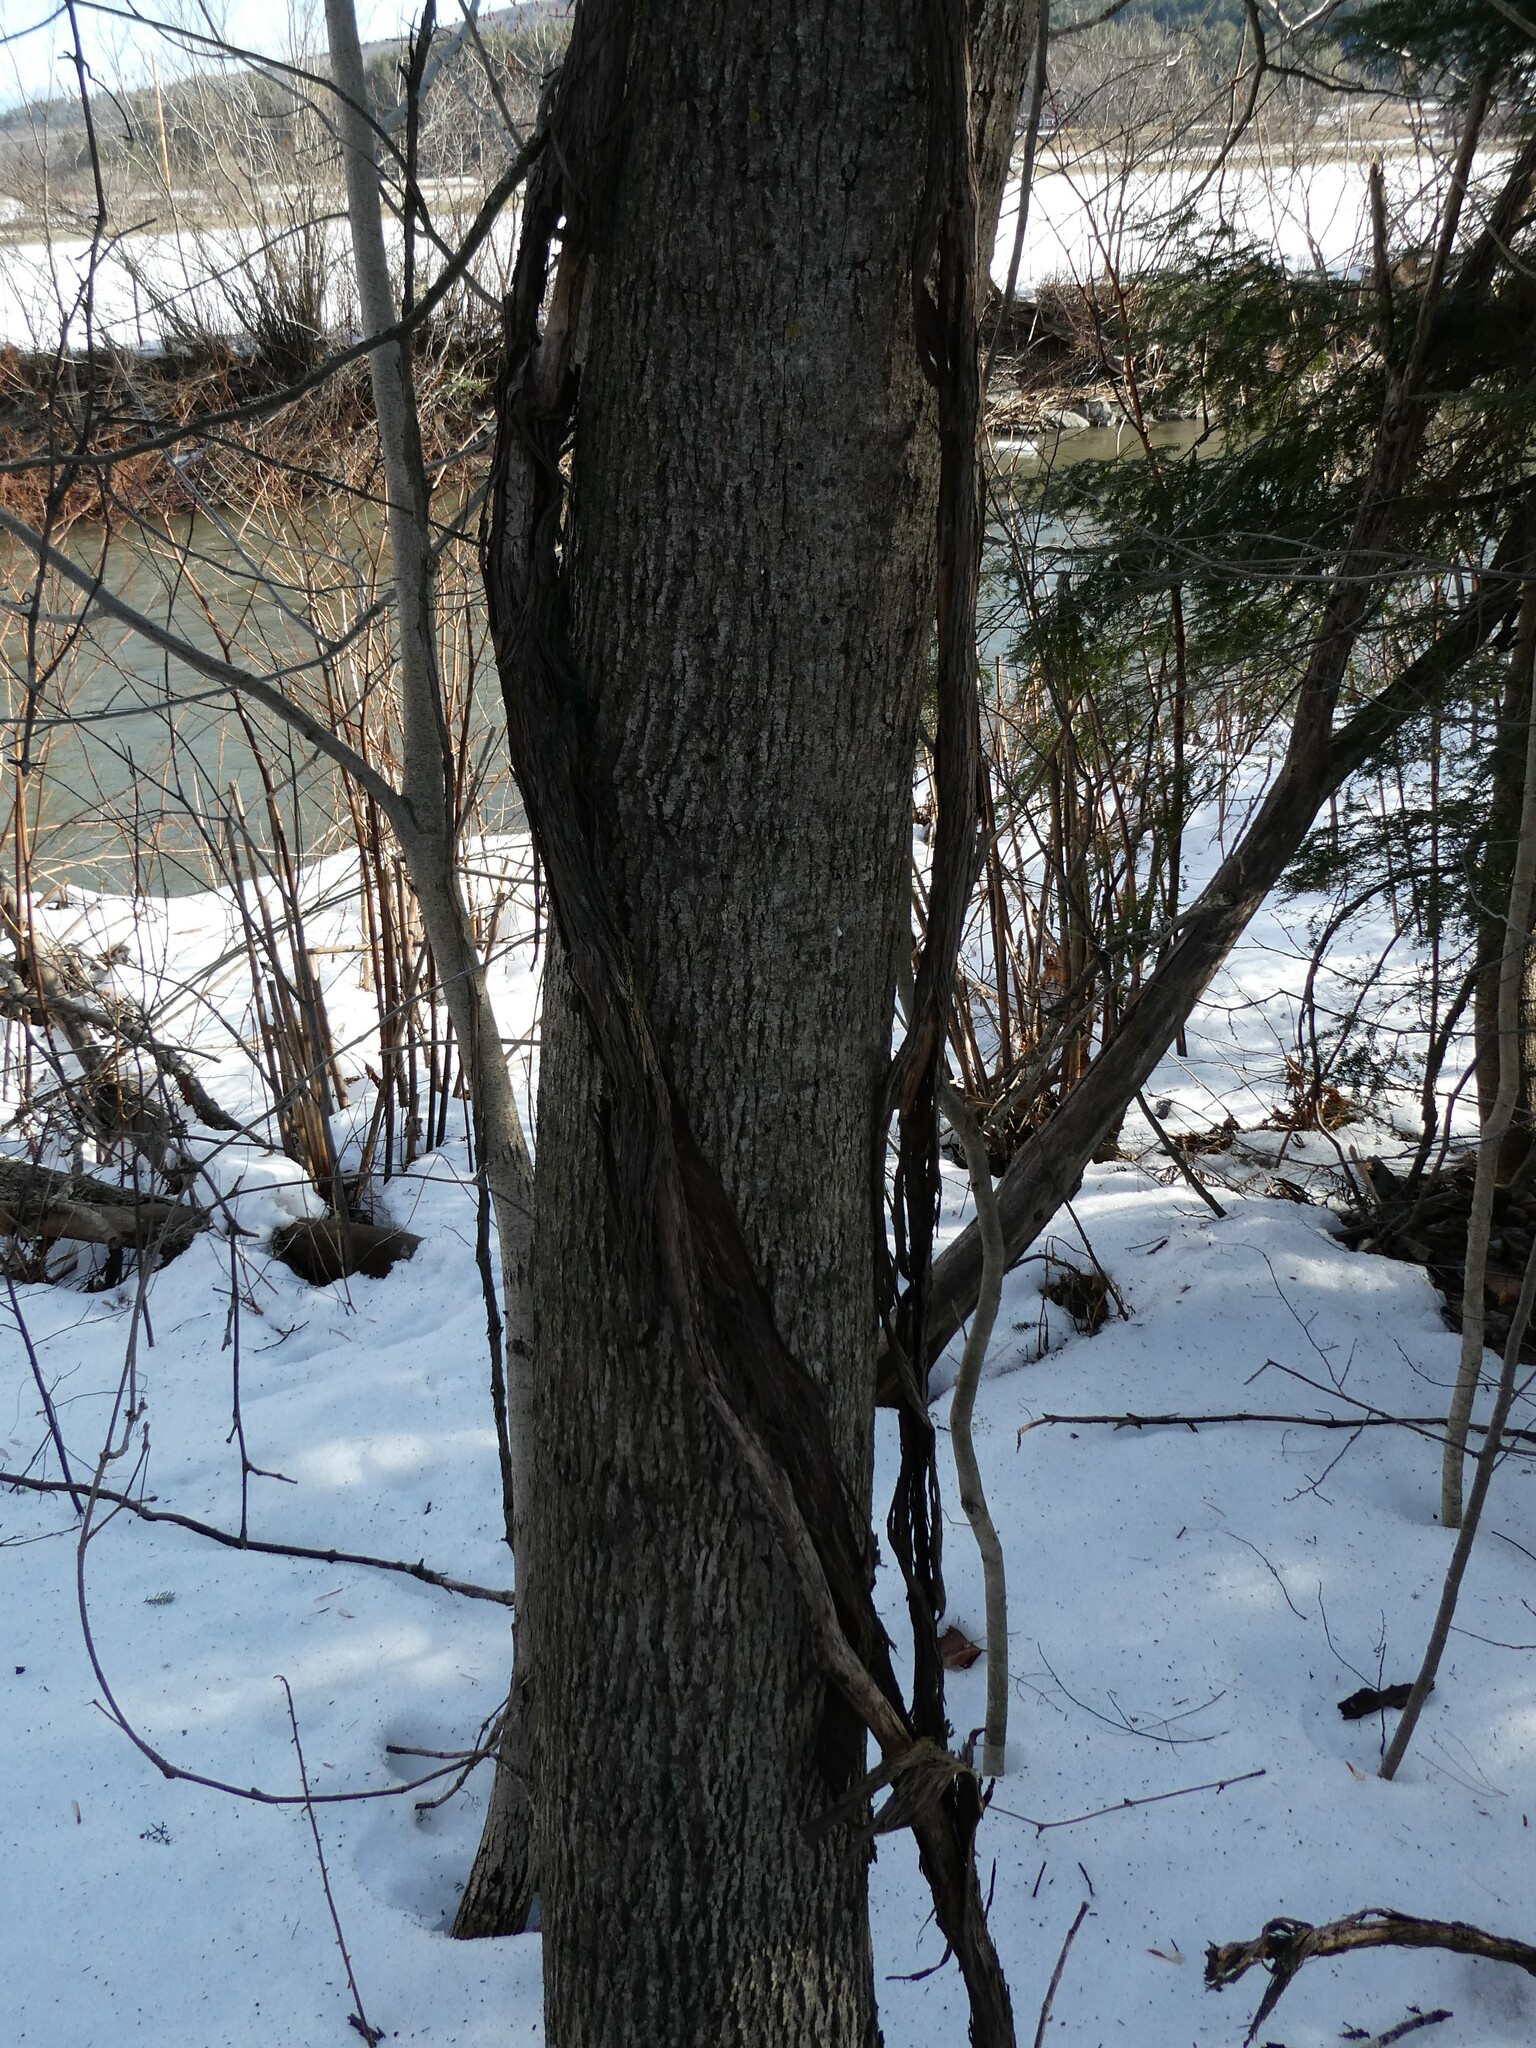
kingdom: Plantae
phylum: Tracheophyta
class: Magnoliopsida
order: Malvales
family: Malvaceae
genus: Tilia
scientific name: Tilia americana
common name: Basswood
